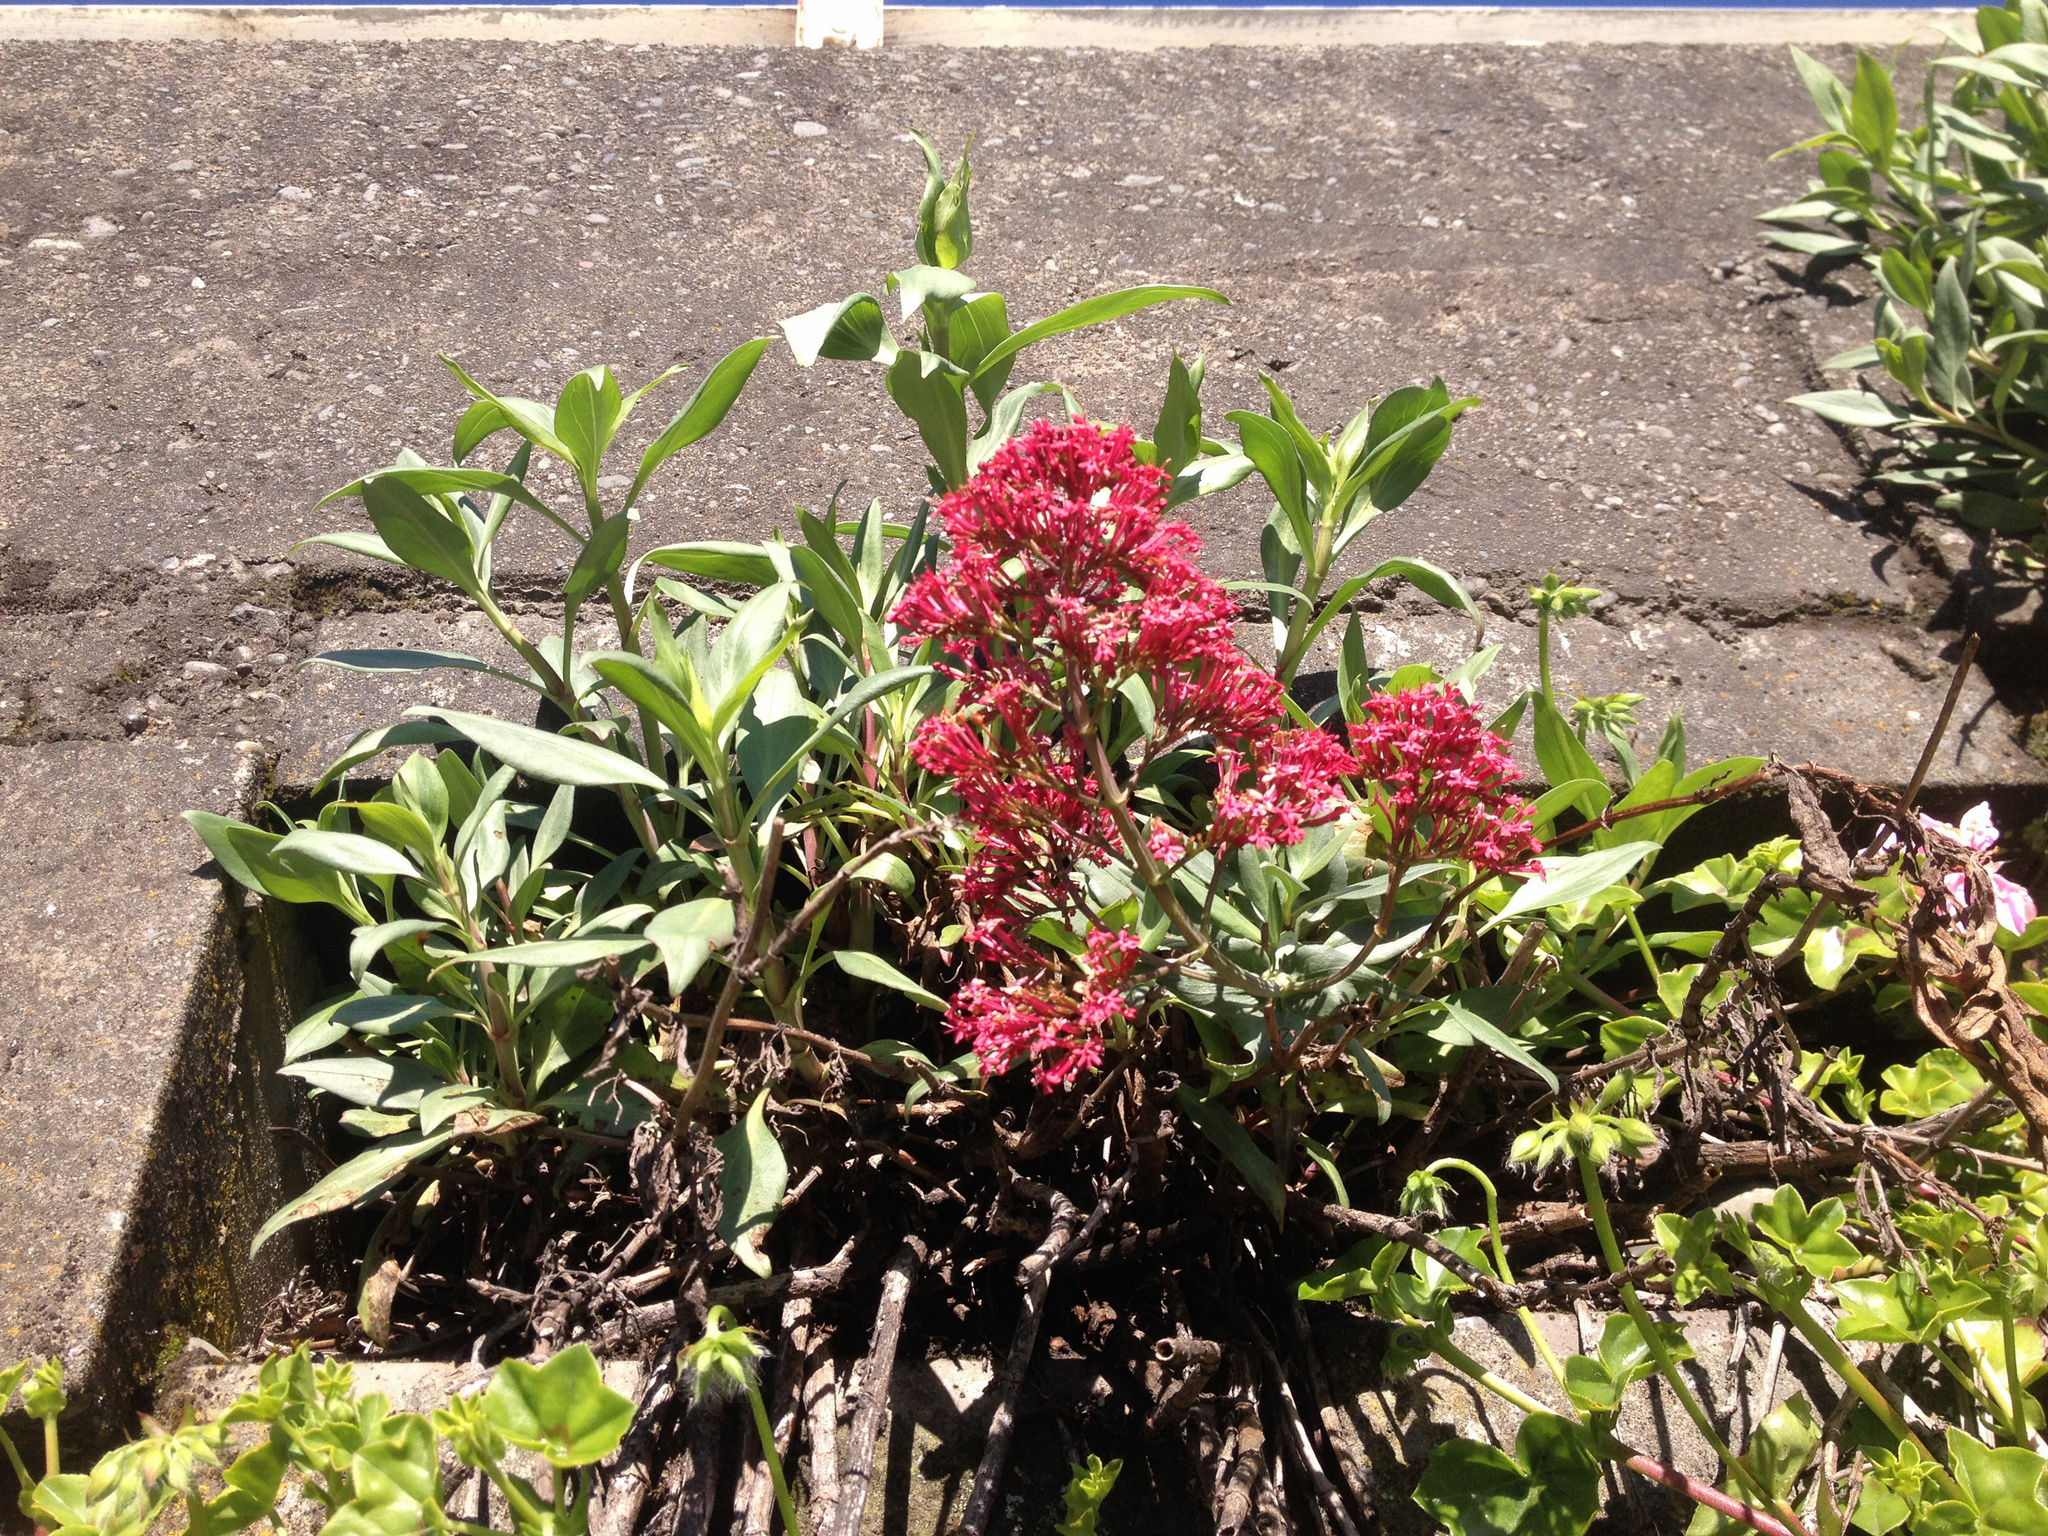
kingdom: Plantae
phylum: Tracheophyta
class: Magnoliopsida
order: Dipsacales
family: Caprifoliaceae
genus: Centranthus
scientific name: Centranthus ruber
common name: Red valerian
